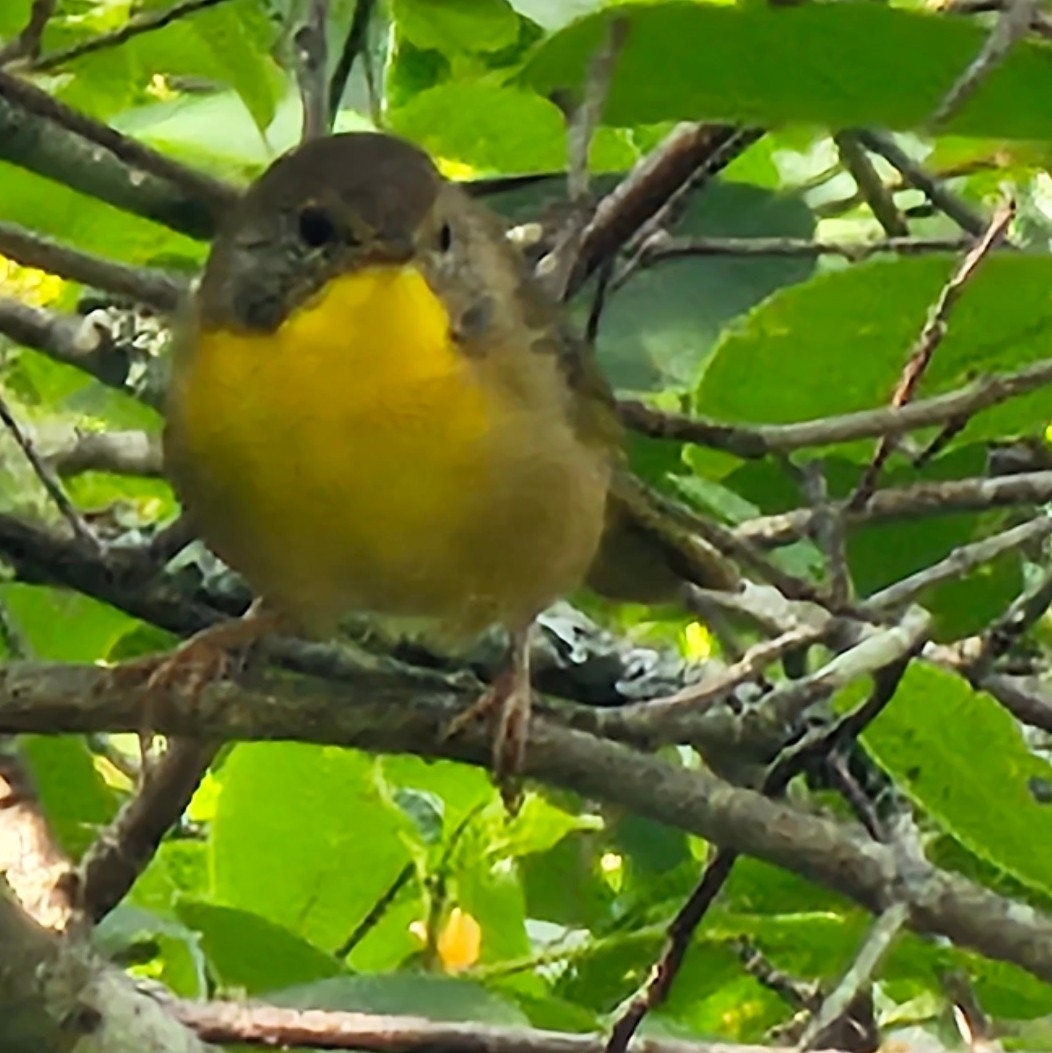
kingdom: Animalia
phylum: Chordata
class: Aves
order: Passeriformes
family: Parulidae
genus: Geothlypis
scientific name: Geothlypis trichas
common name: Common yellowthroat
